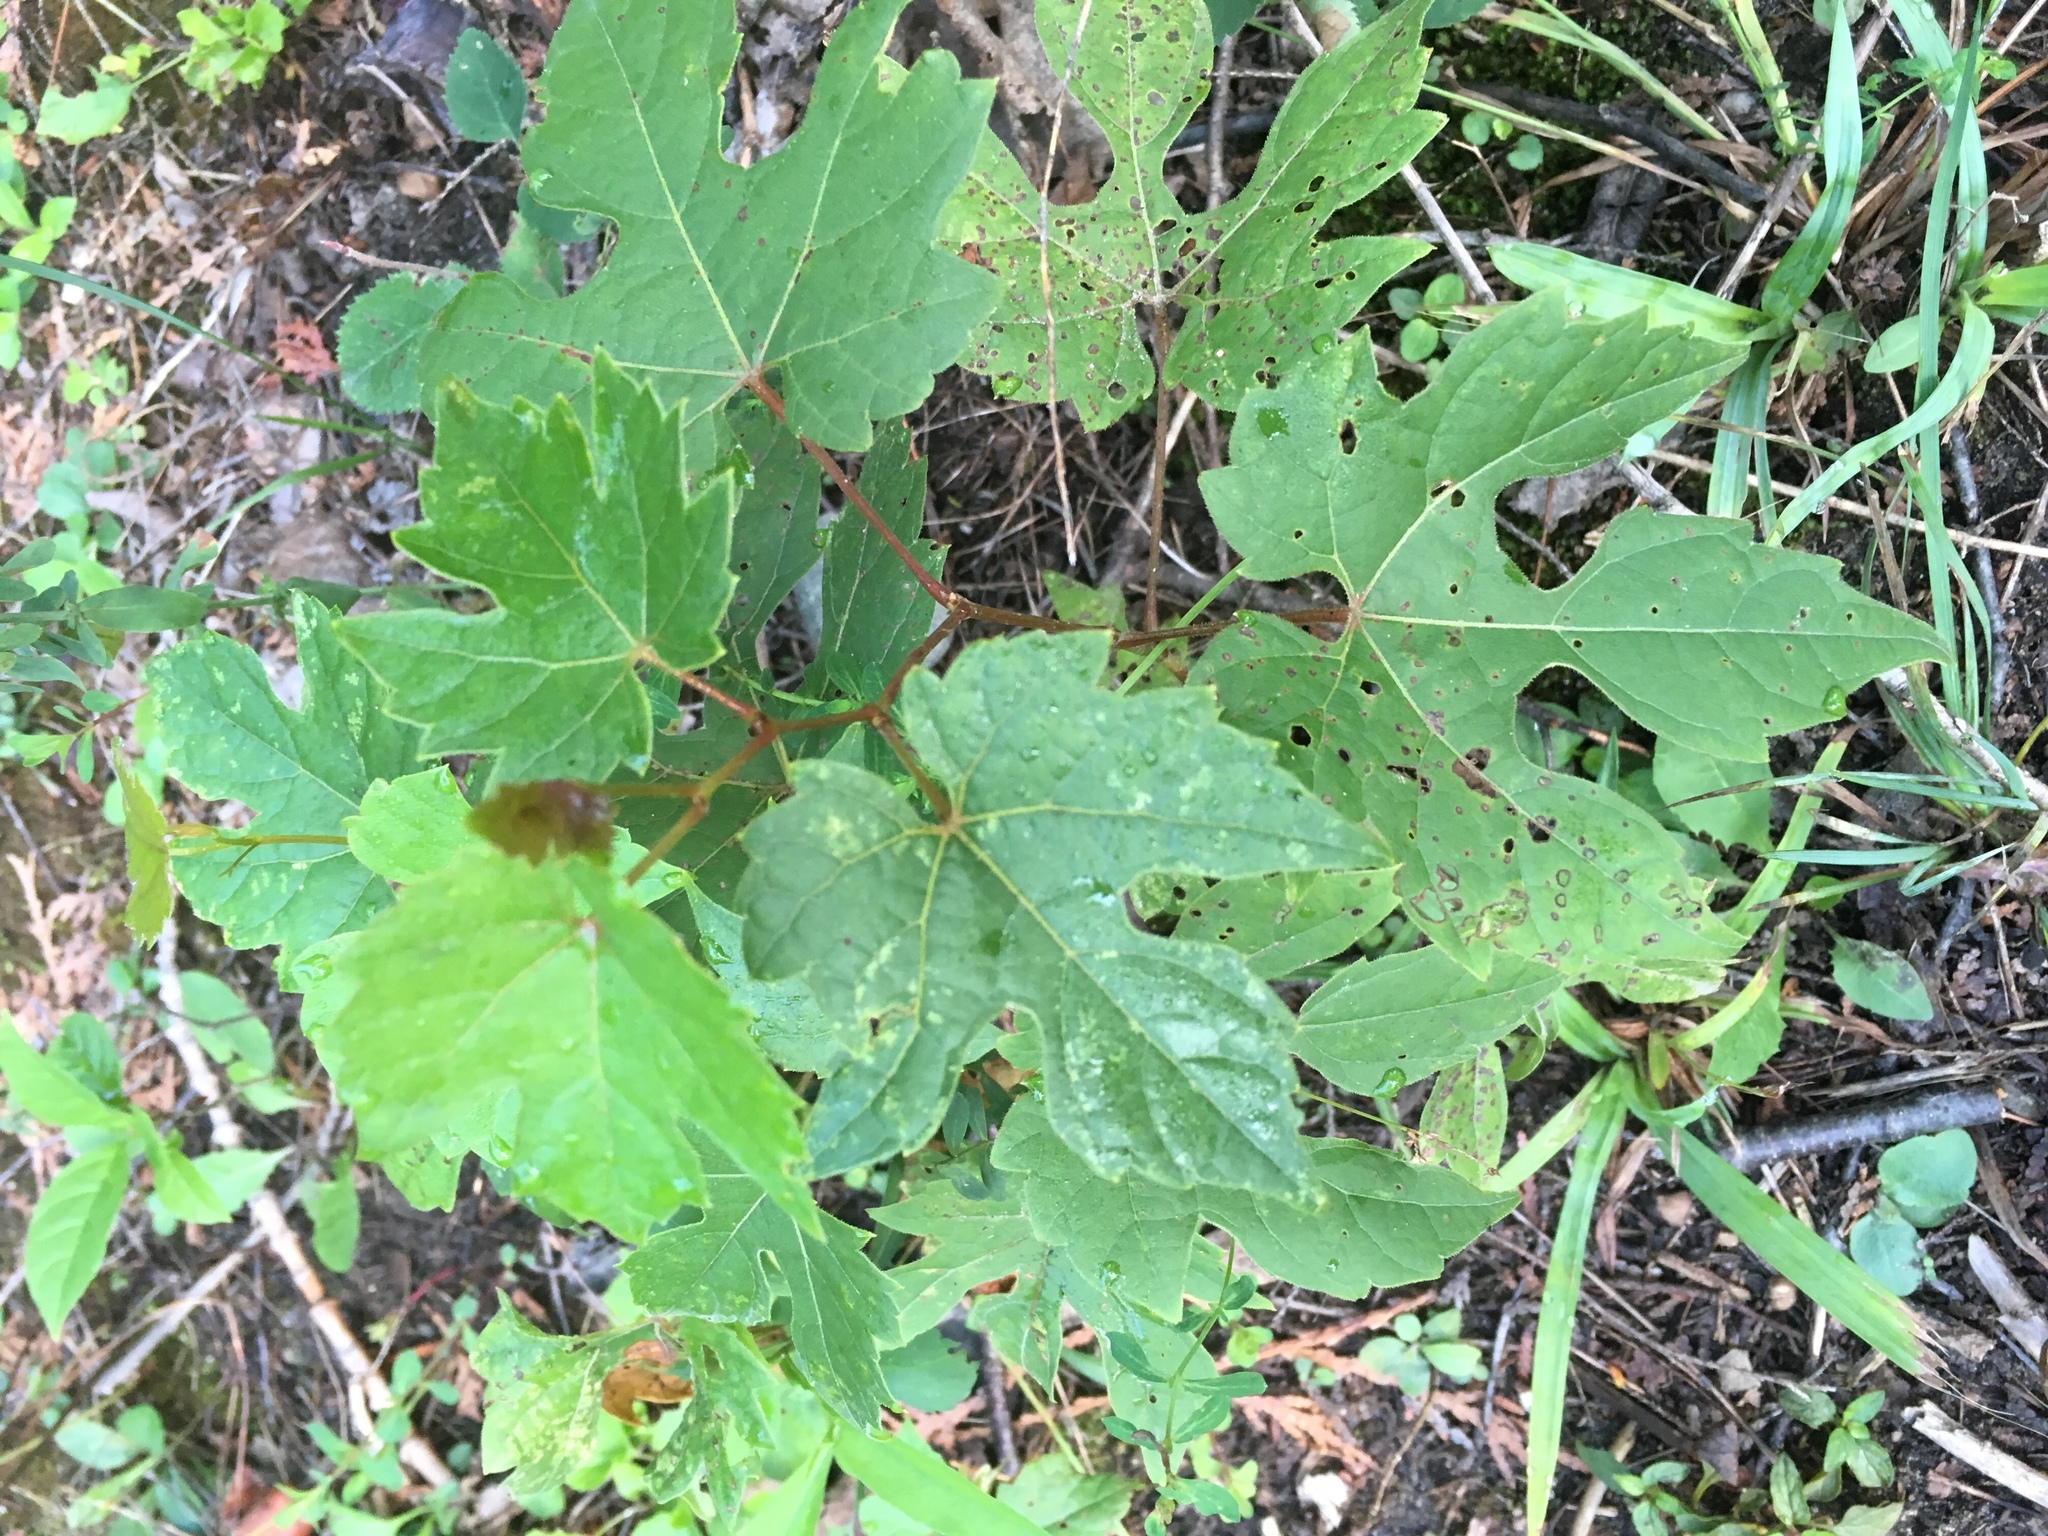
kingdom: Plantae
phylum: Tracheophyta
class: Magnoliopsida
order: Vitales
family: Vitaceae
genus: Vitis
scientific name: Vitis riparia
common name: Frost grape
